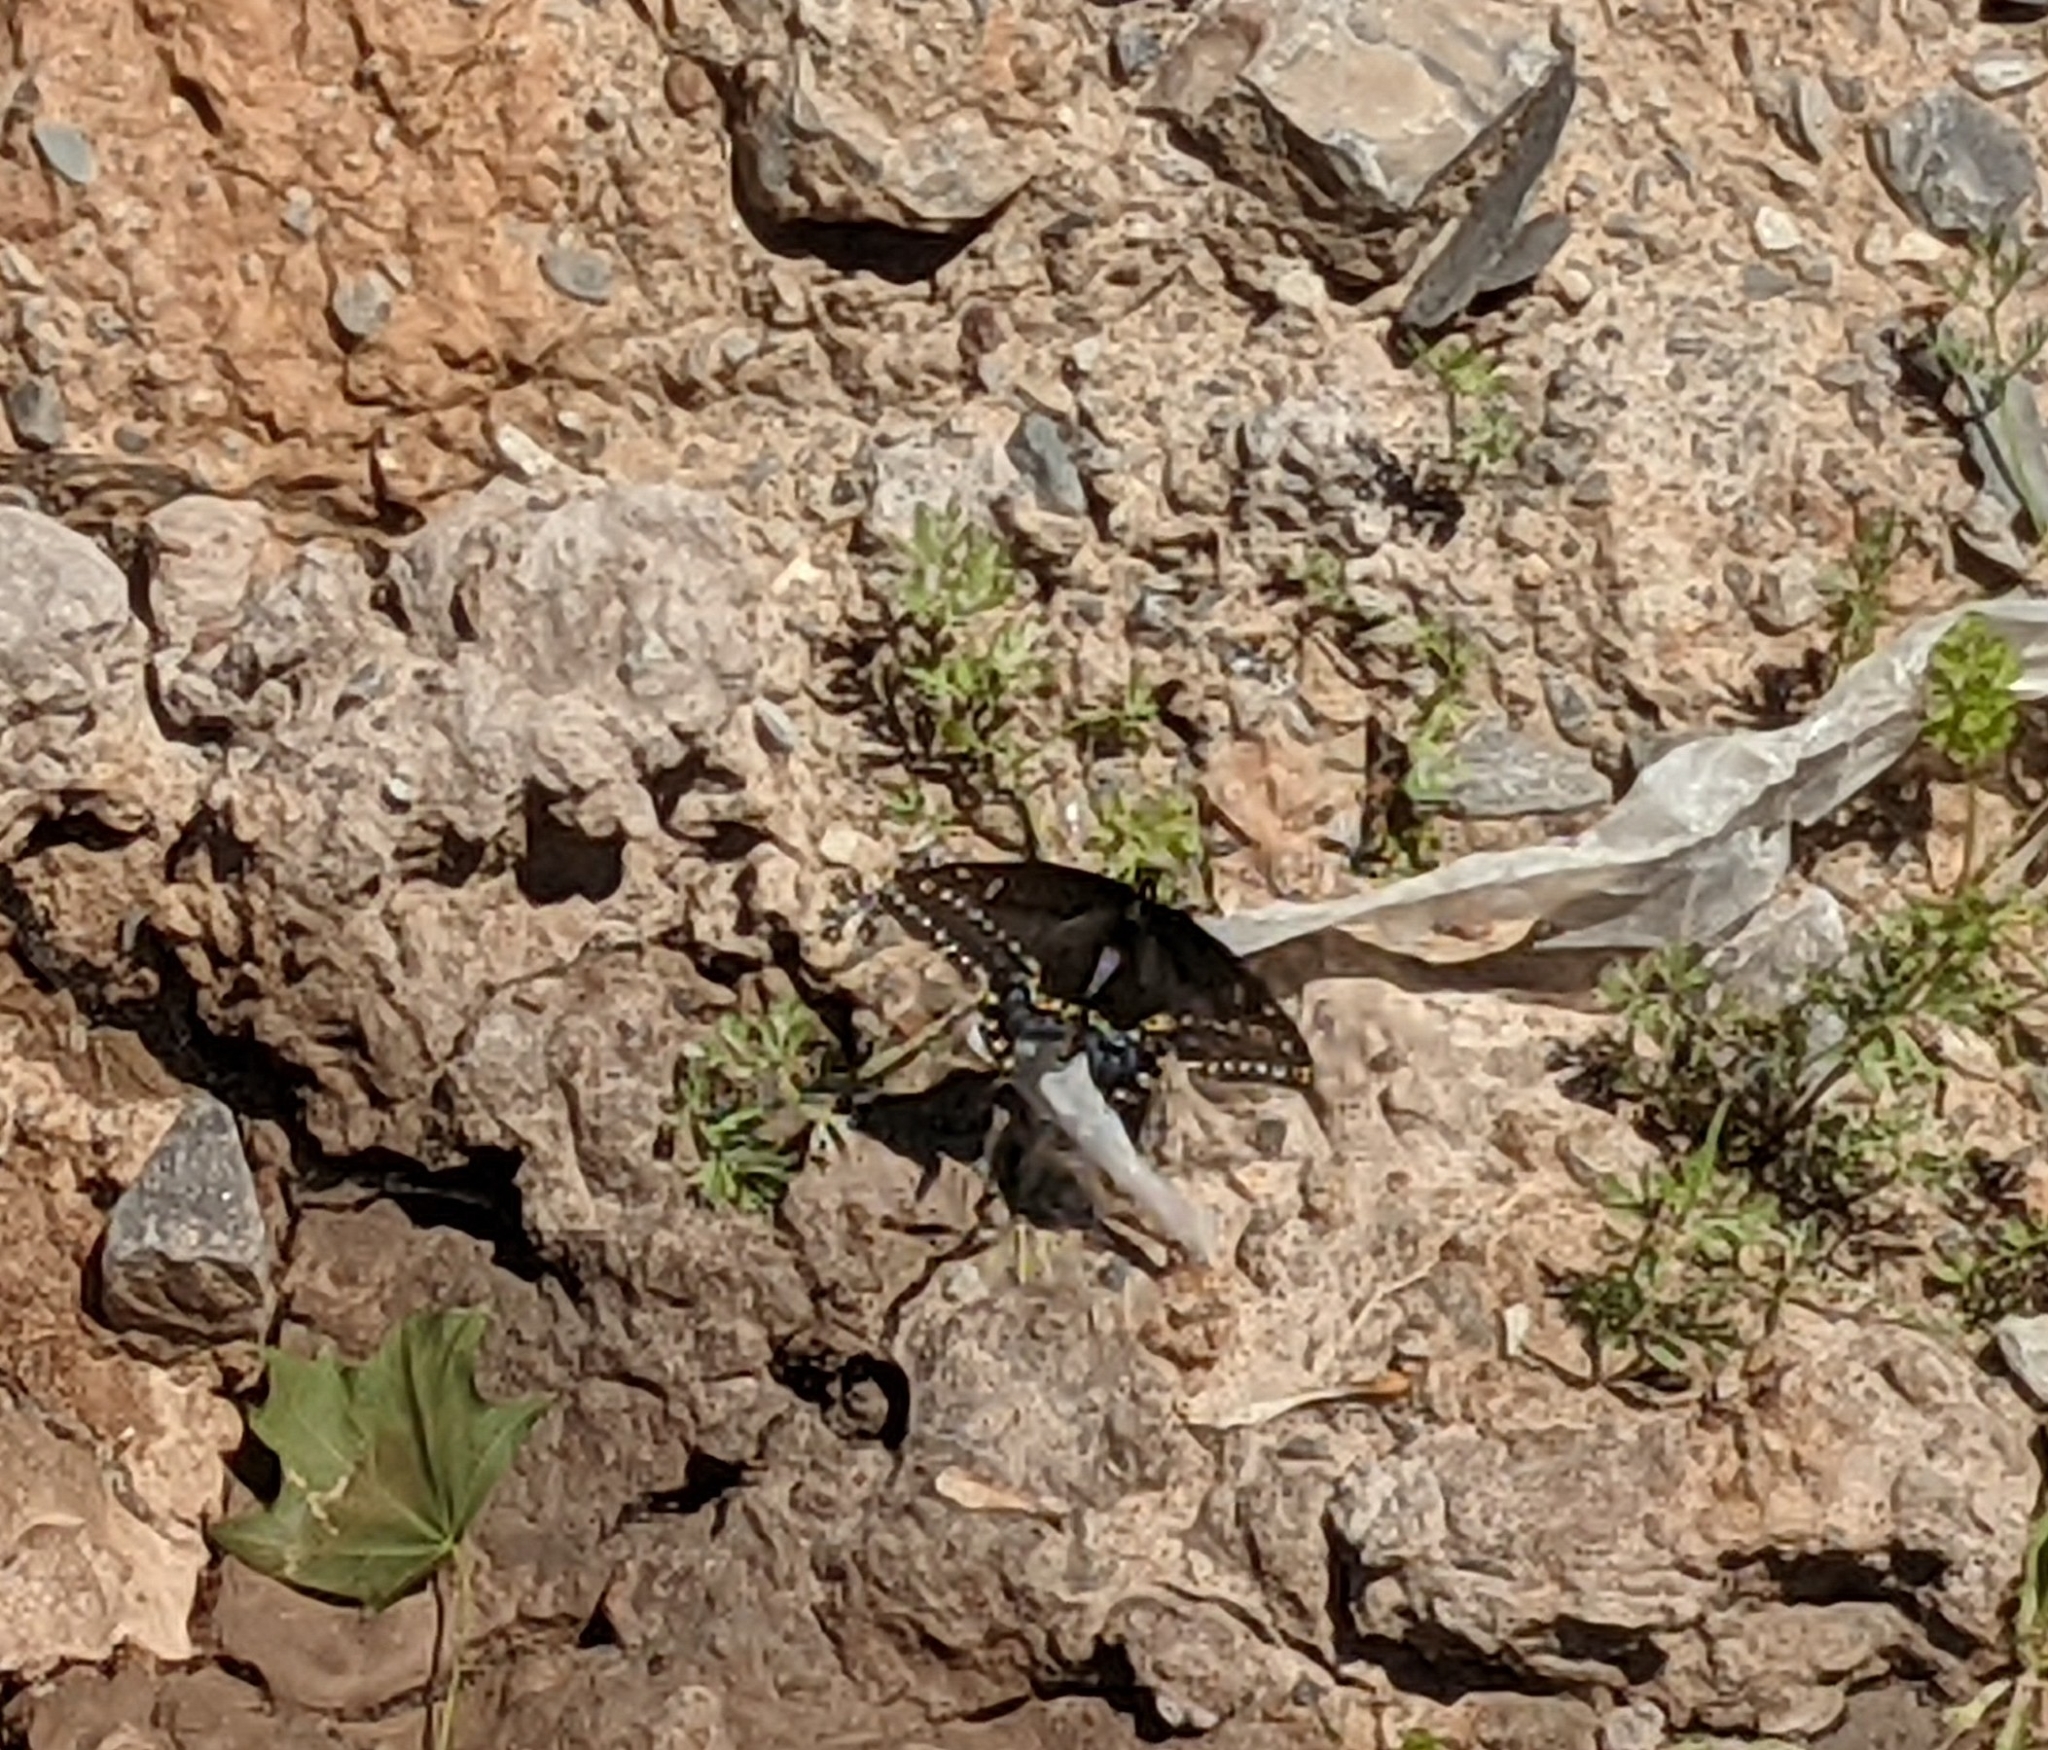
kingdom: Animalia
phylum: Arthropoda
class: Insecta
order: Lepidoptera
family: Papilionidae
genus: Papilio
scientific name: Papilio polyxenes
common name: Black swallowtail
